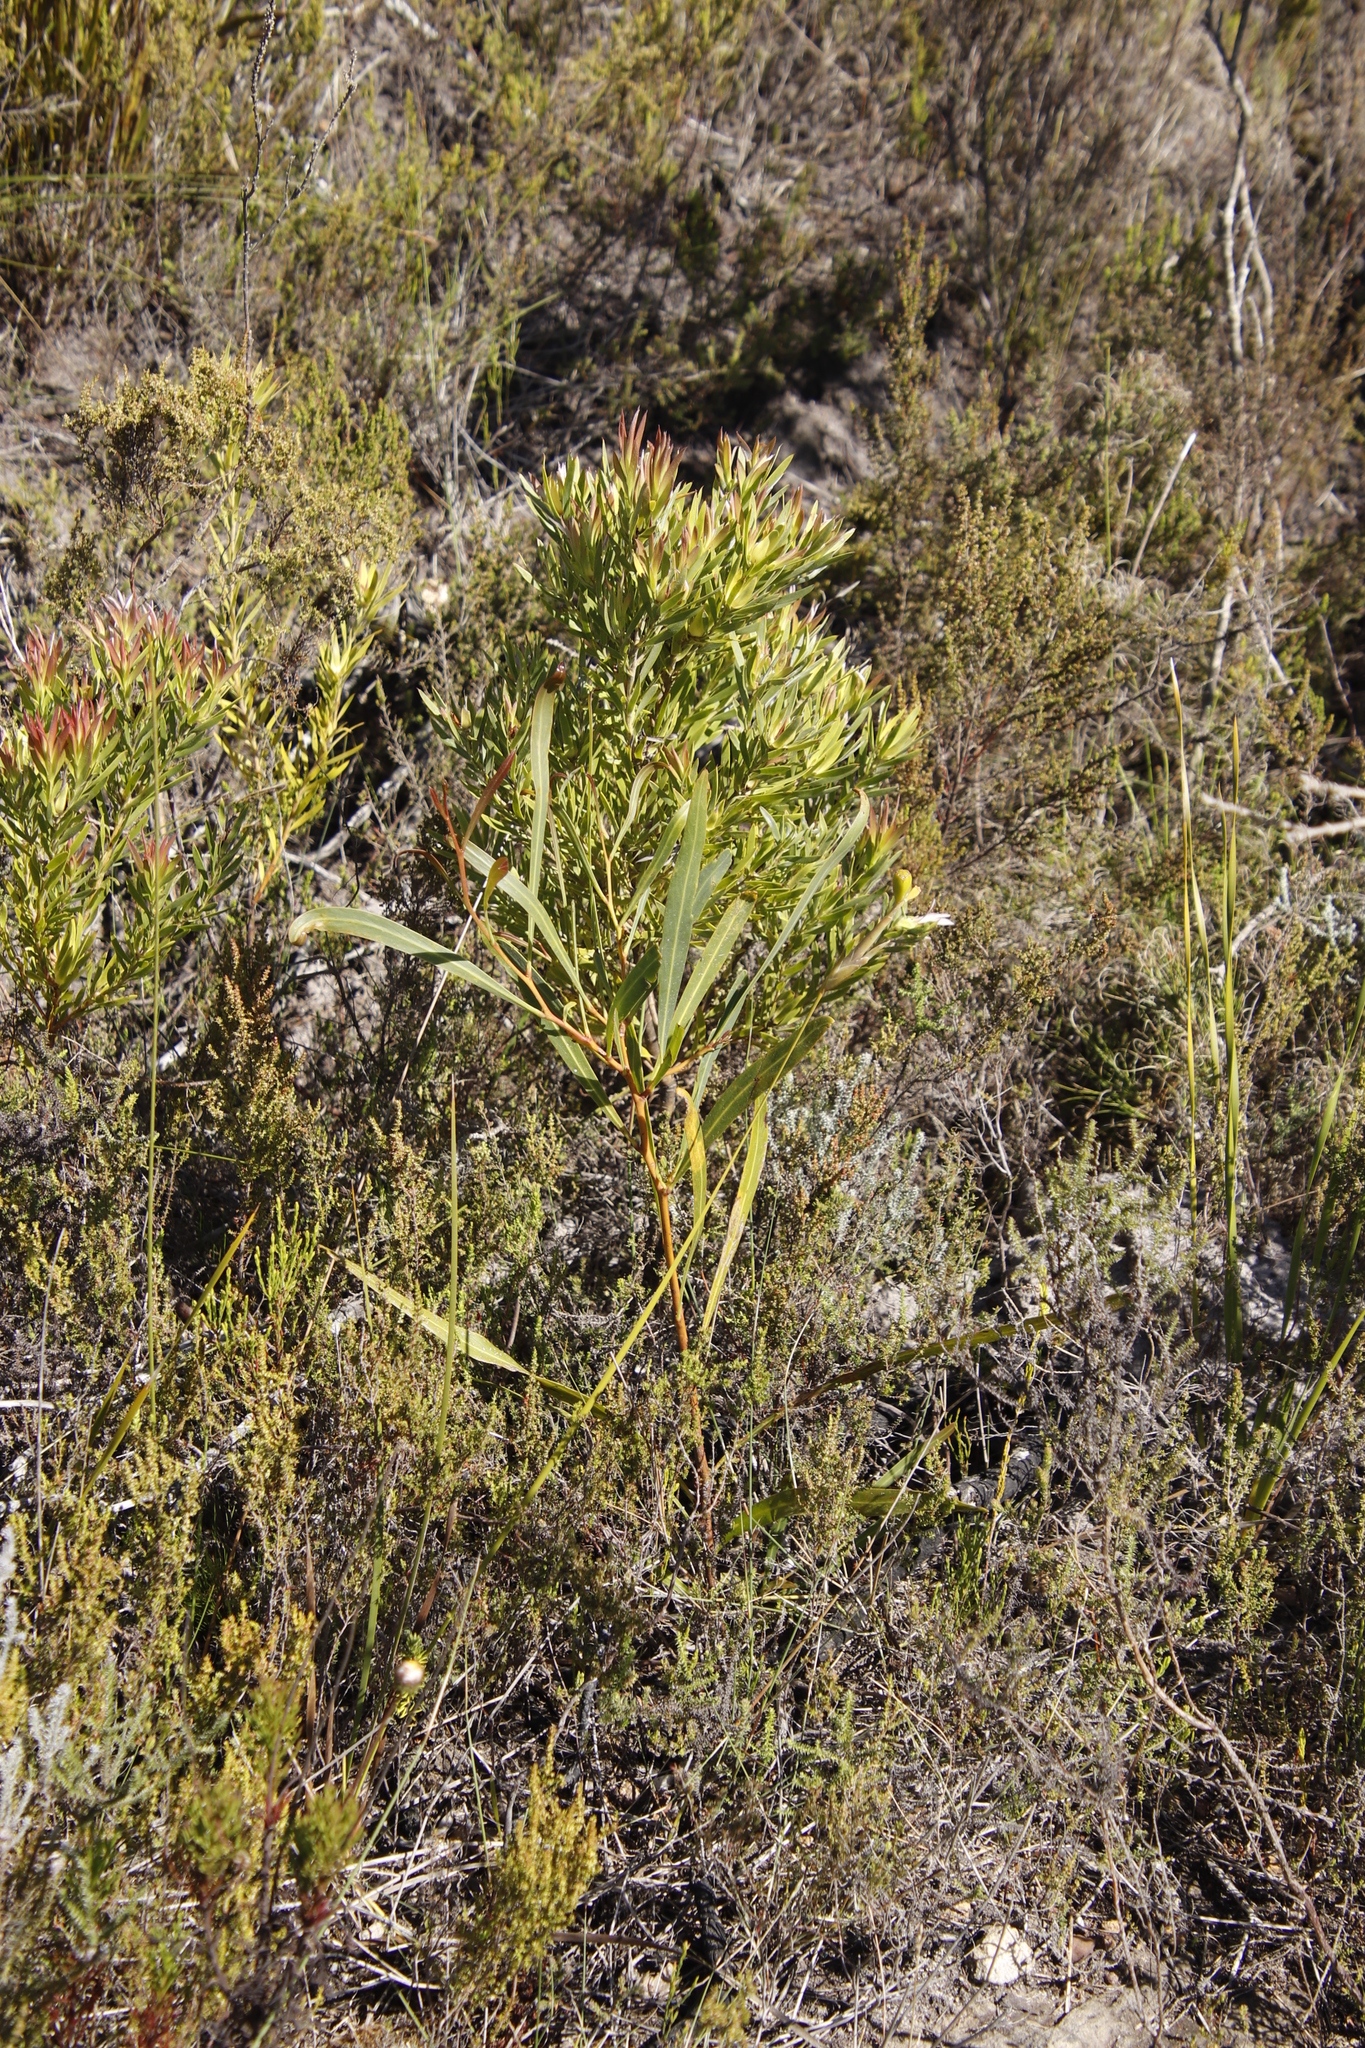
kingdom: Plantae
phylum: Tracheophyta
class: Magnoliopsida
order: Proteales
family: Proteaceae
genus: Leucadendron
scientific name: Leucadendron xanthoconus
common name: Sickle-leaf conebush
